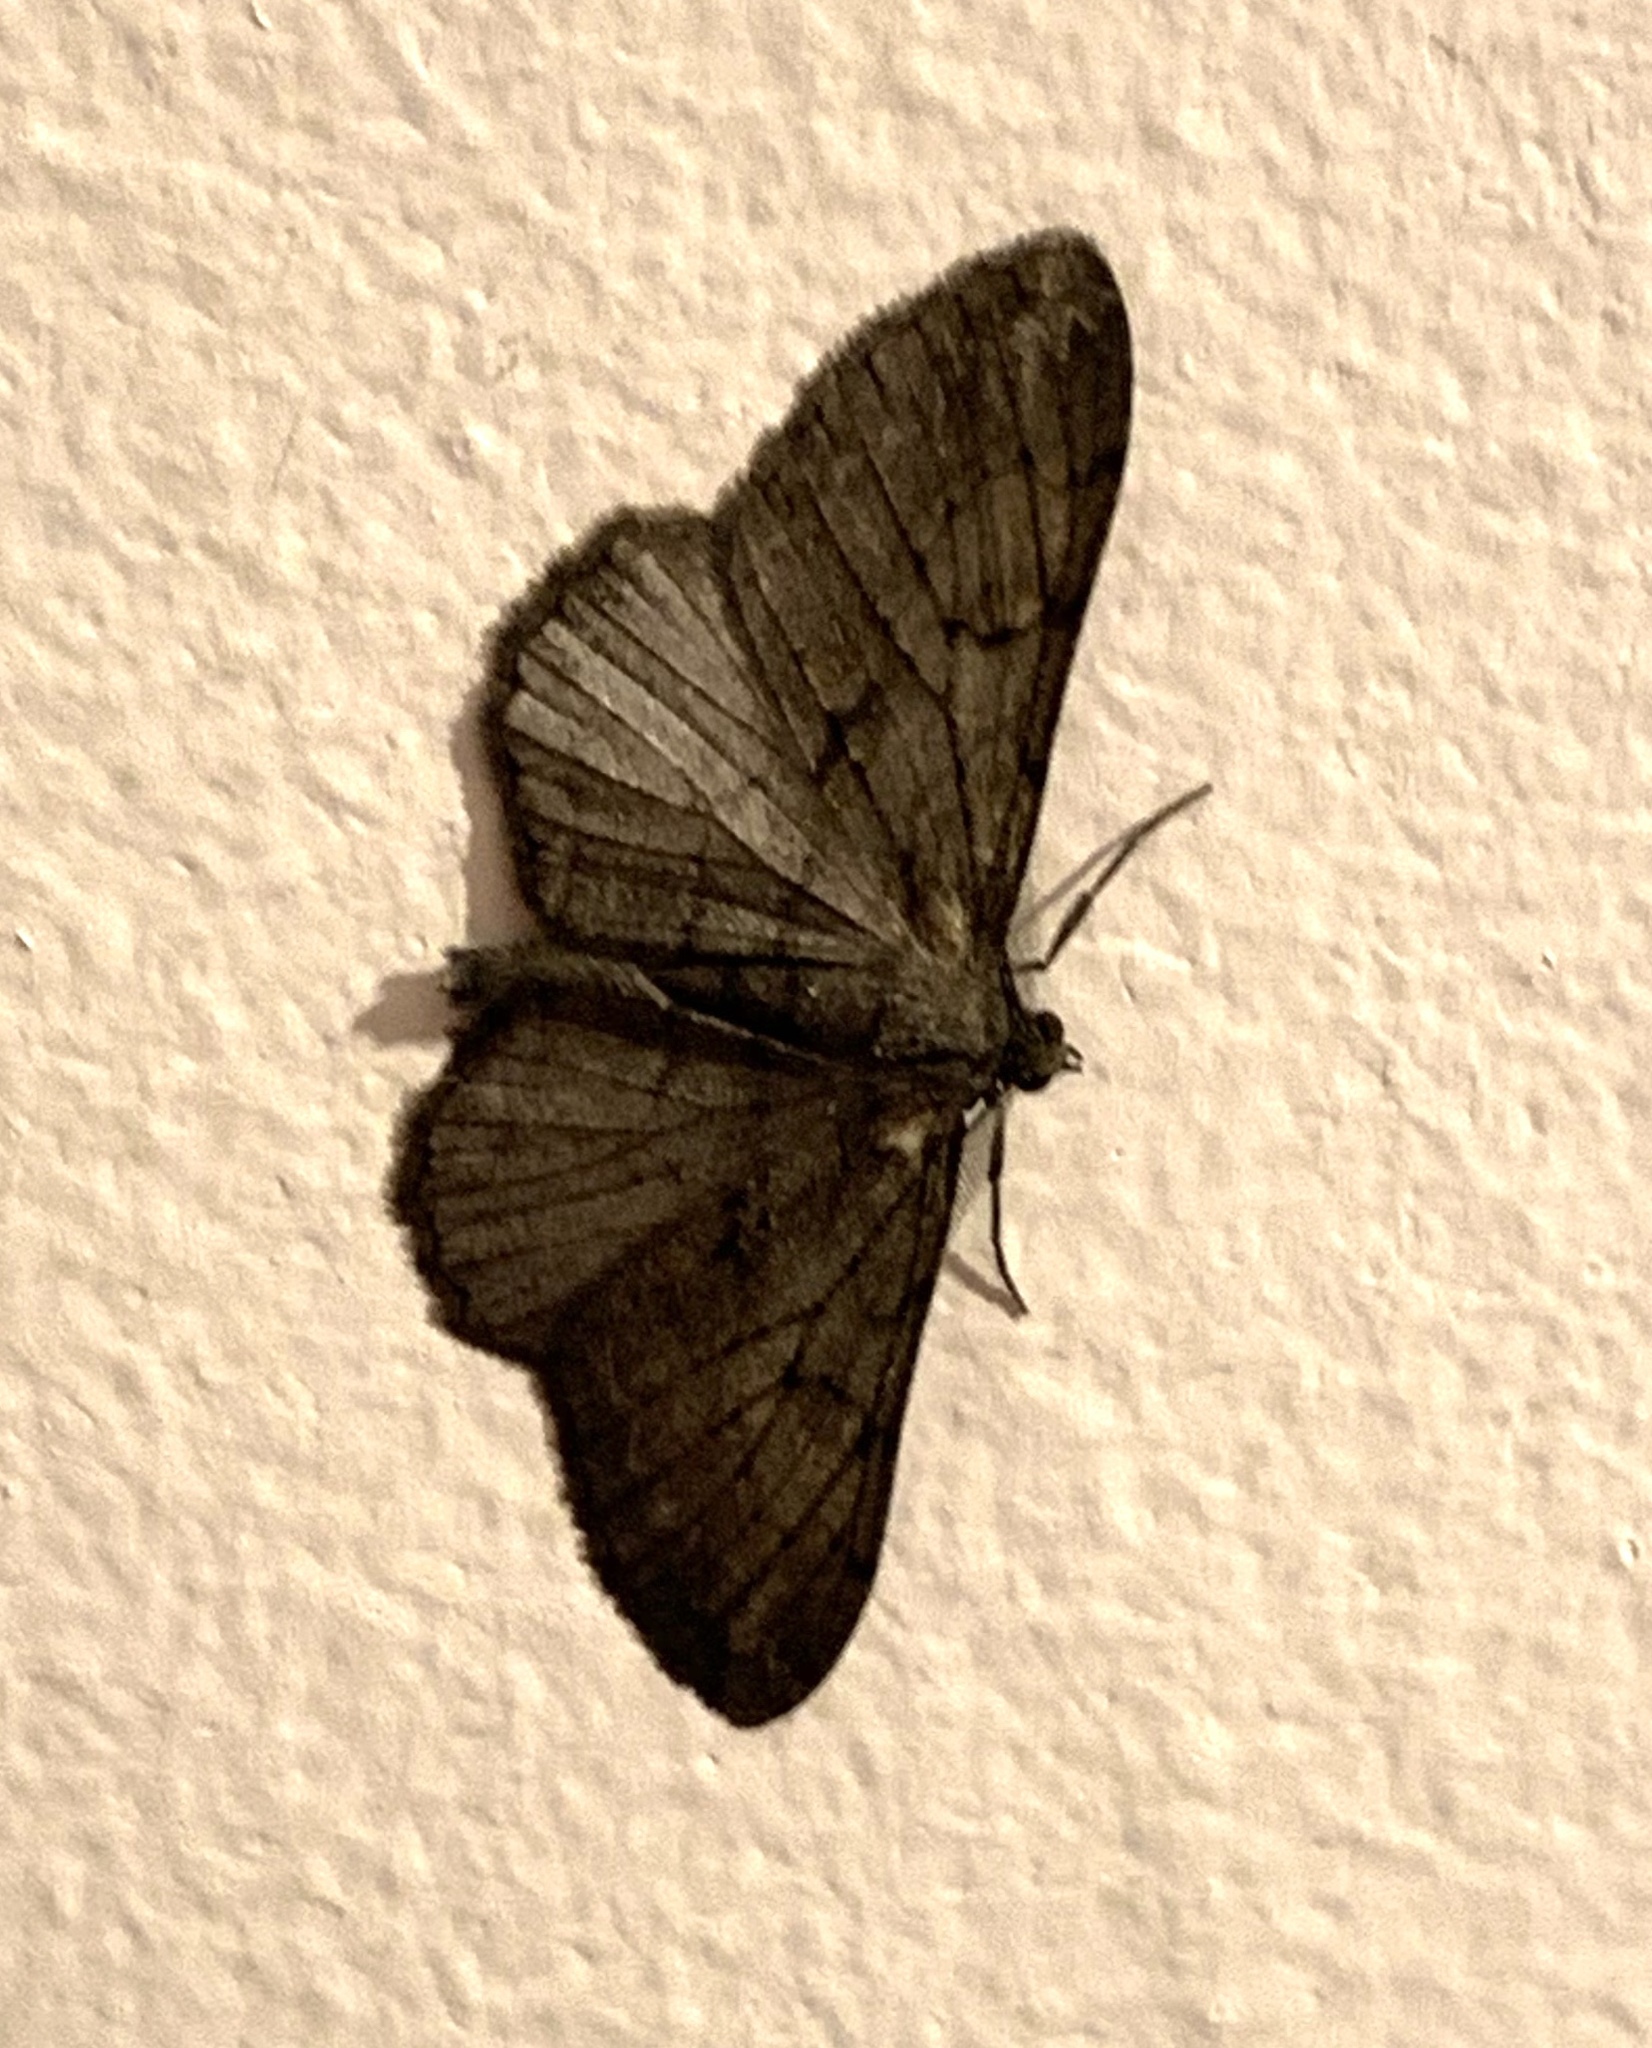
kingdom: Animalia
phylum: Arthropoda
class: Insecta
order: Lepidoptera
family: Geometridae
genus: Peribatodes
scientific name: Peribatodes rhomboidaria
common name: Willow beauty
